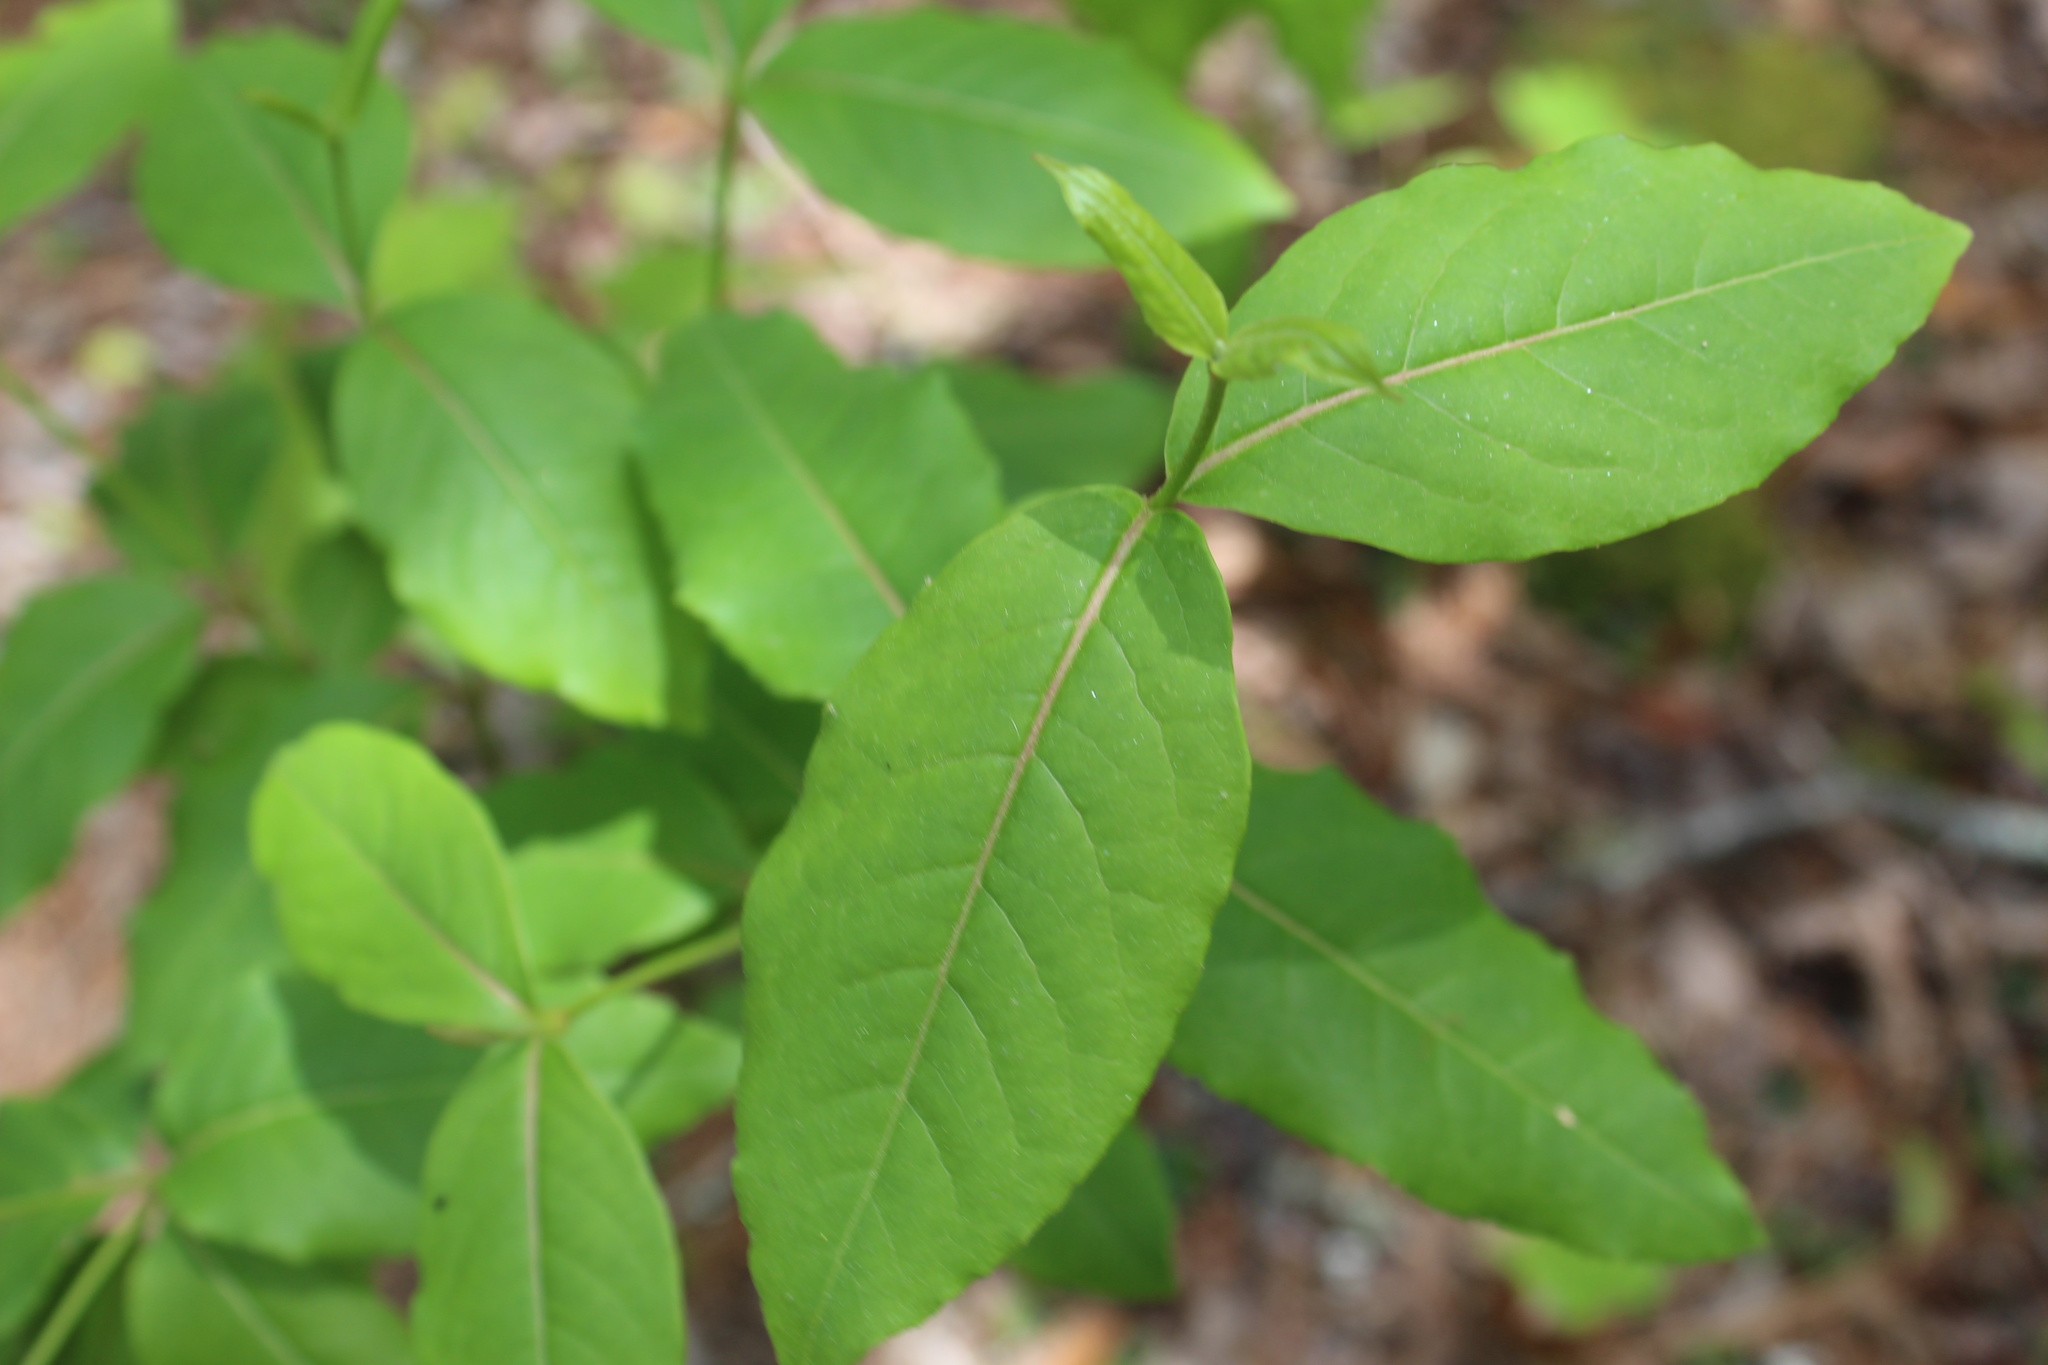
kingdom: Plantae
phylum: Tracheophyta
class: Magnoliopsida
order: Dipsacales
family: Viburnaceae
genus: Viburnum
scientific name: Viburnum cassinoides
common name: Swamp haw
